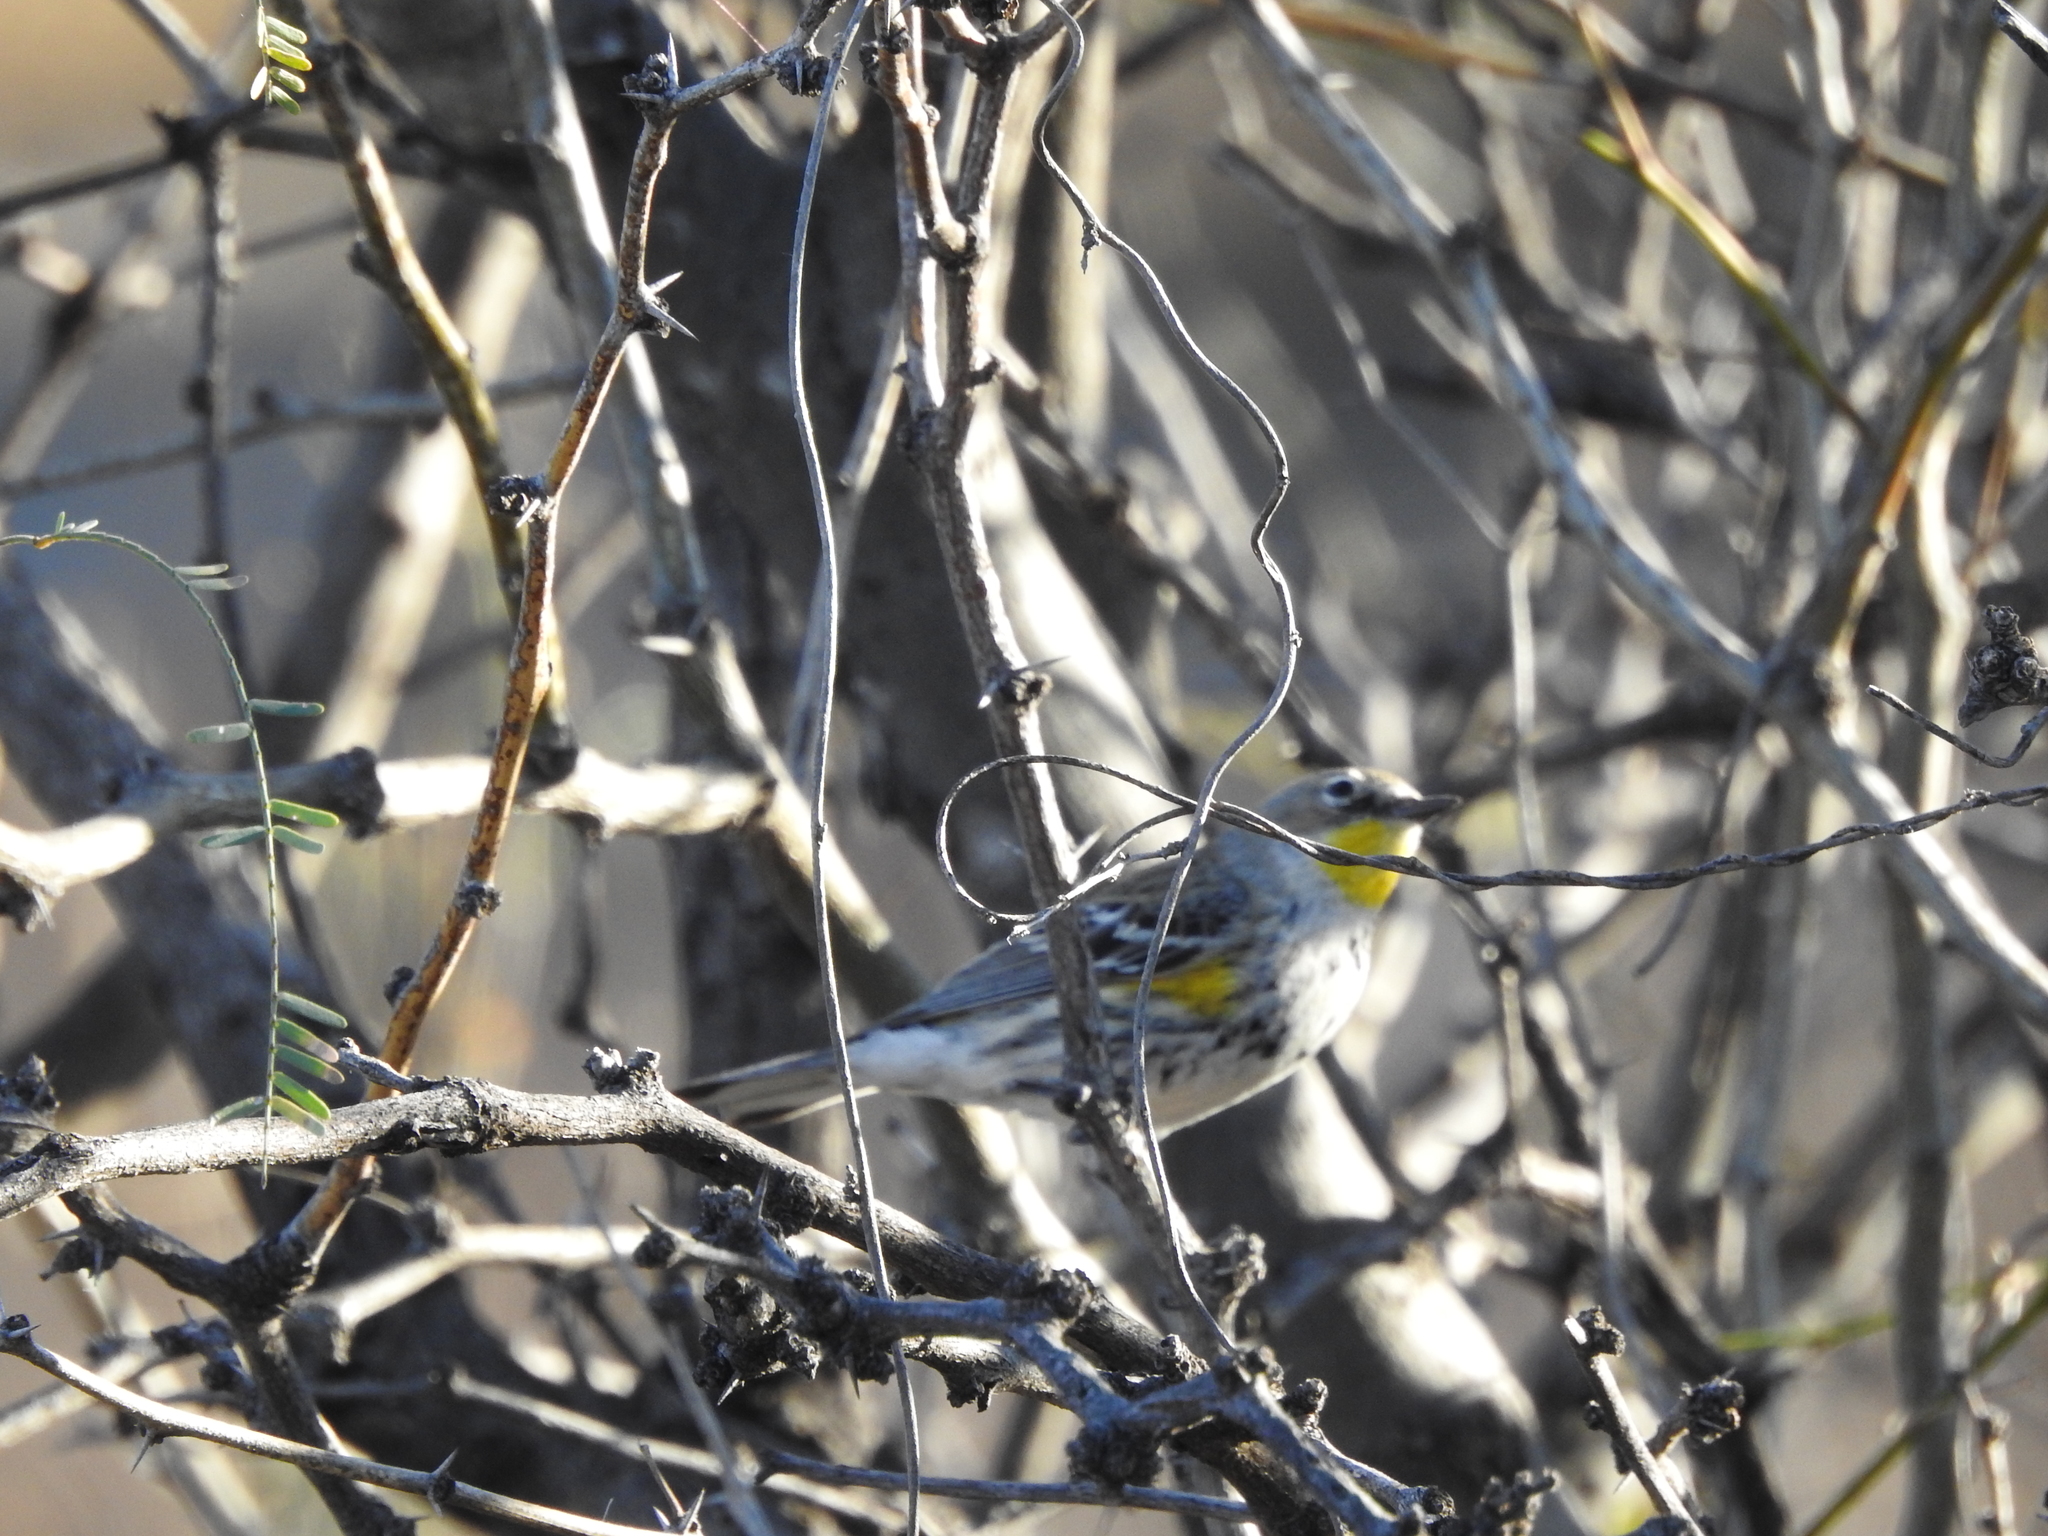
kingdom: Animalia
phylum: Chordata
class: Aves
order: Passeriformes
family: Parulidae
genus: Setophaga
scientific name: Setophaga coronata
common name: Myrtle warbler
